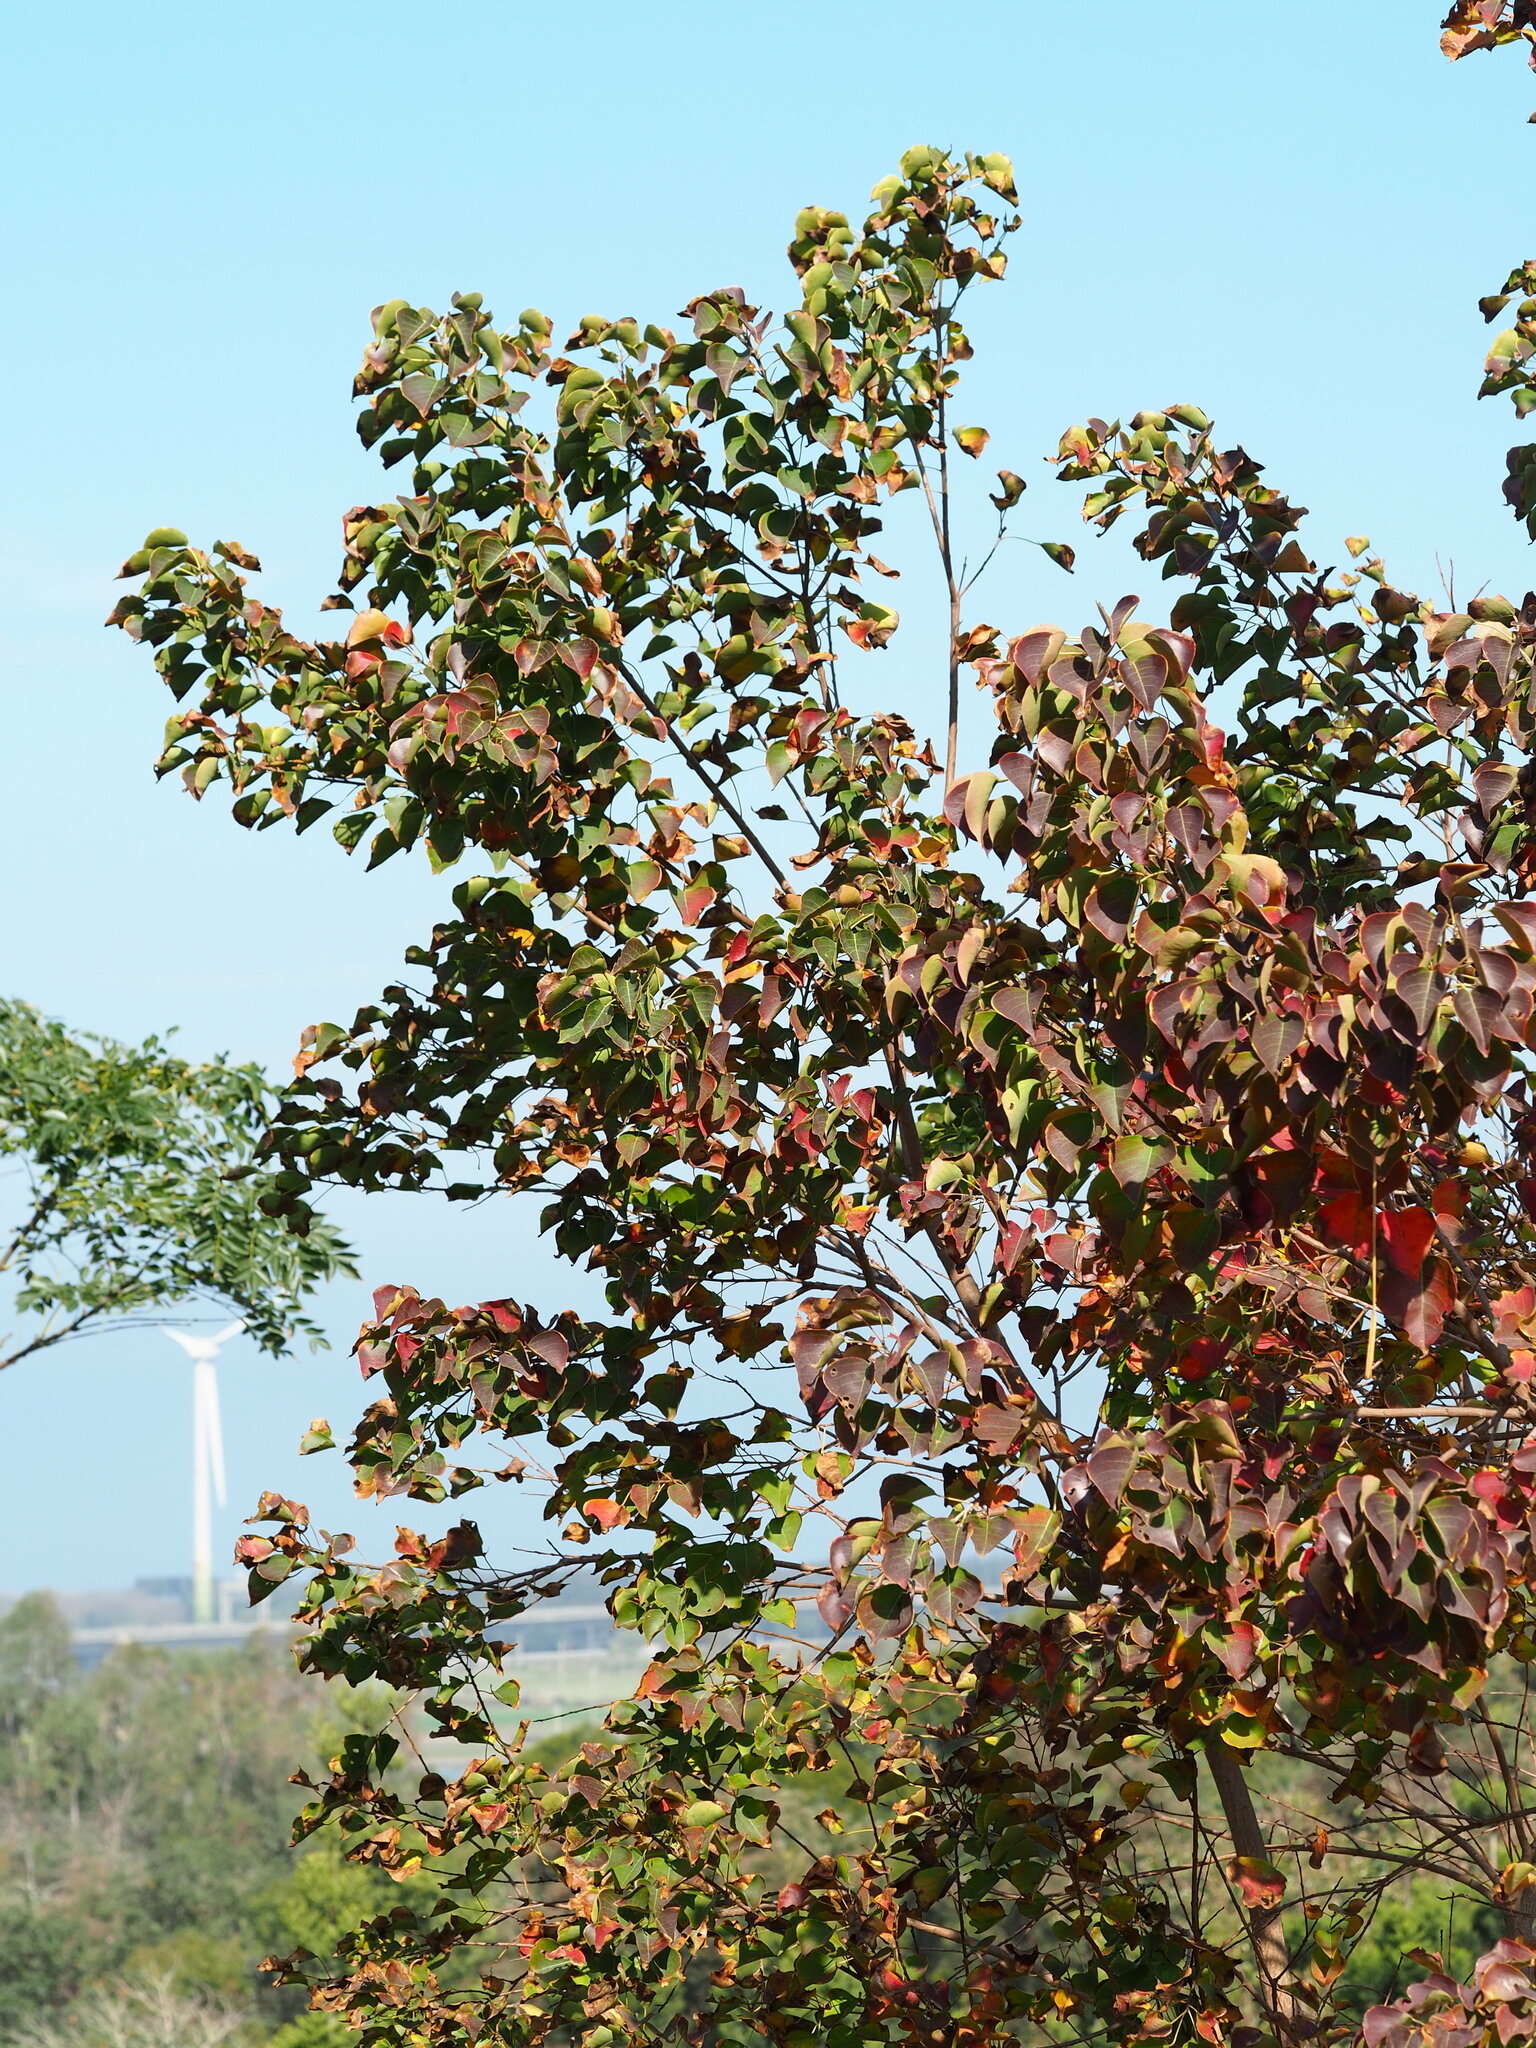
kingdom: Plantae
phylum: Tracheophyta
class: Magnoliopsida
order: Malpighiales
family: Euphorbiaceae
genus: Triadica
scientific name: Triadica sebifera
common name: Chinese tallow
